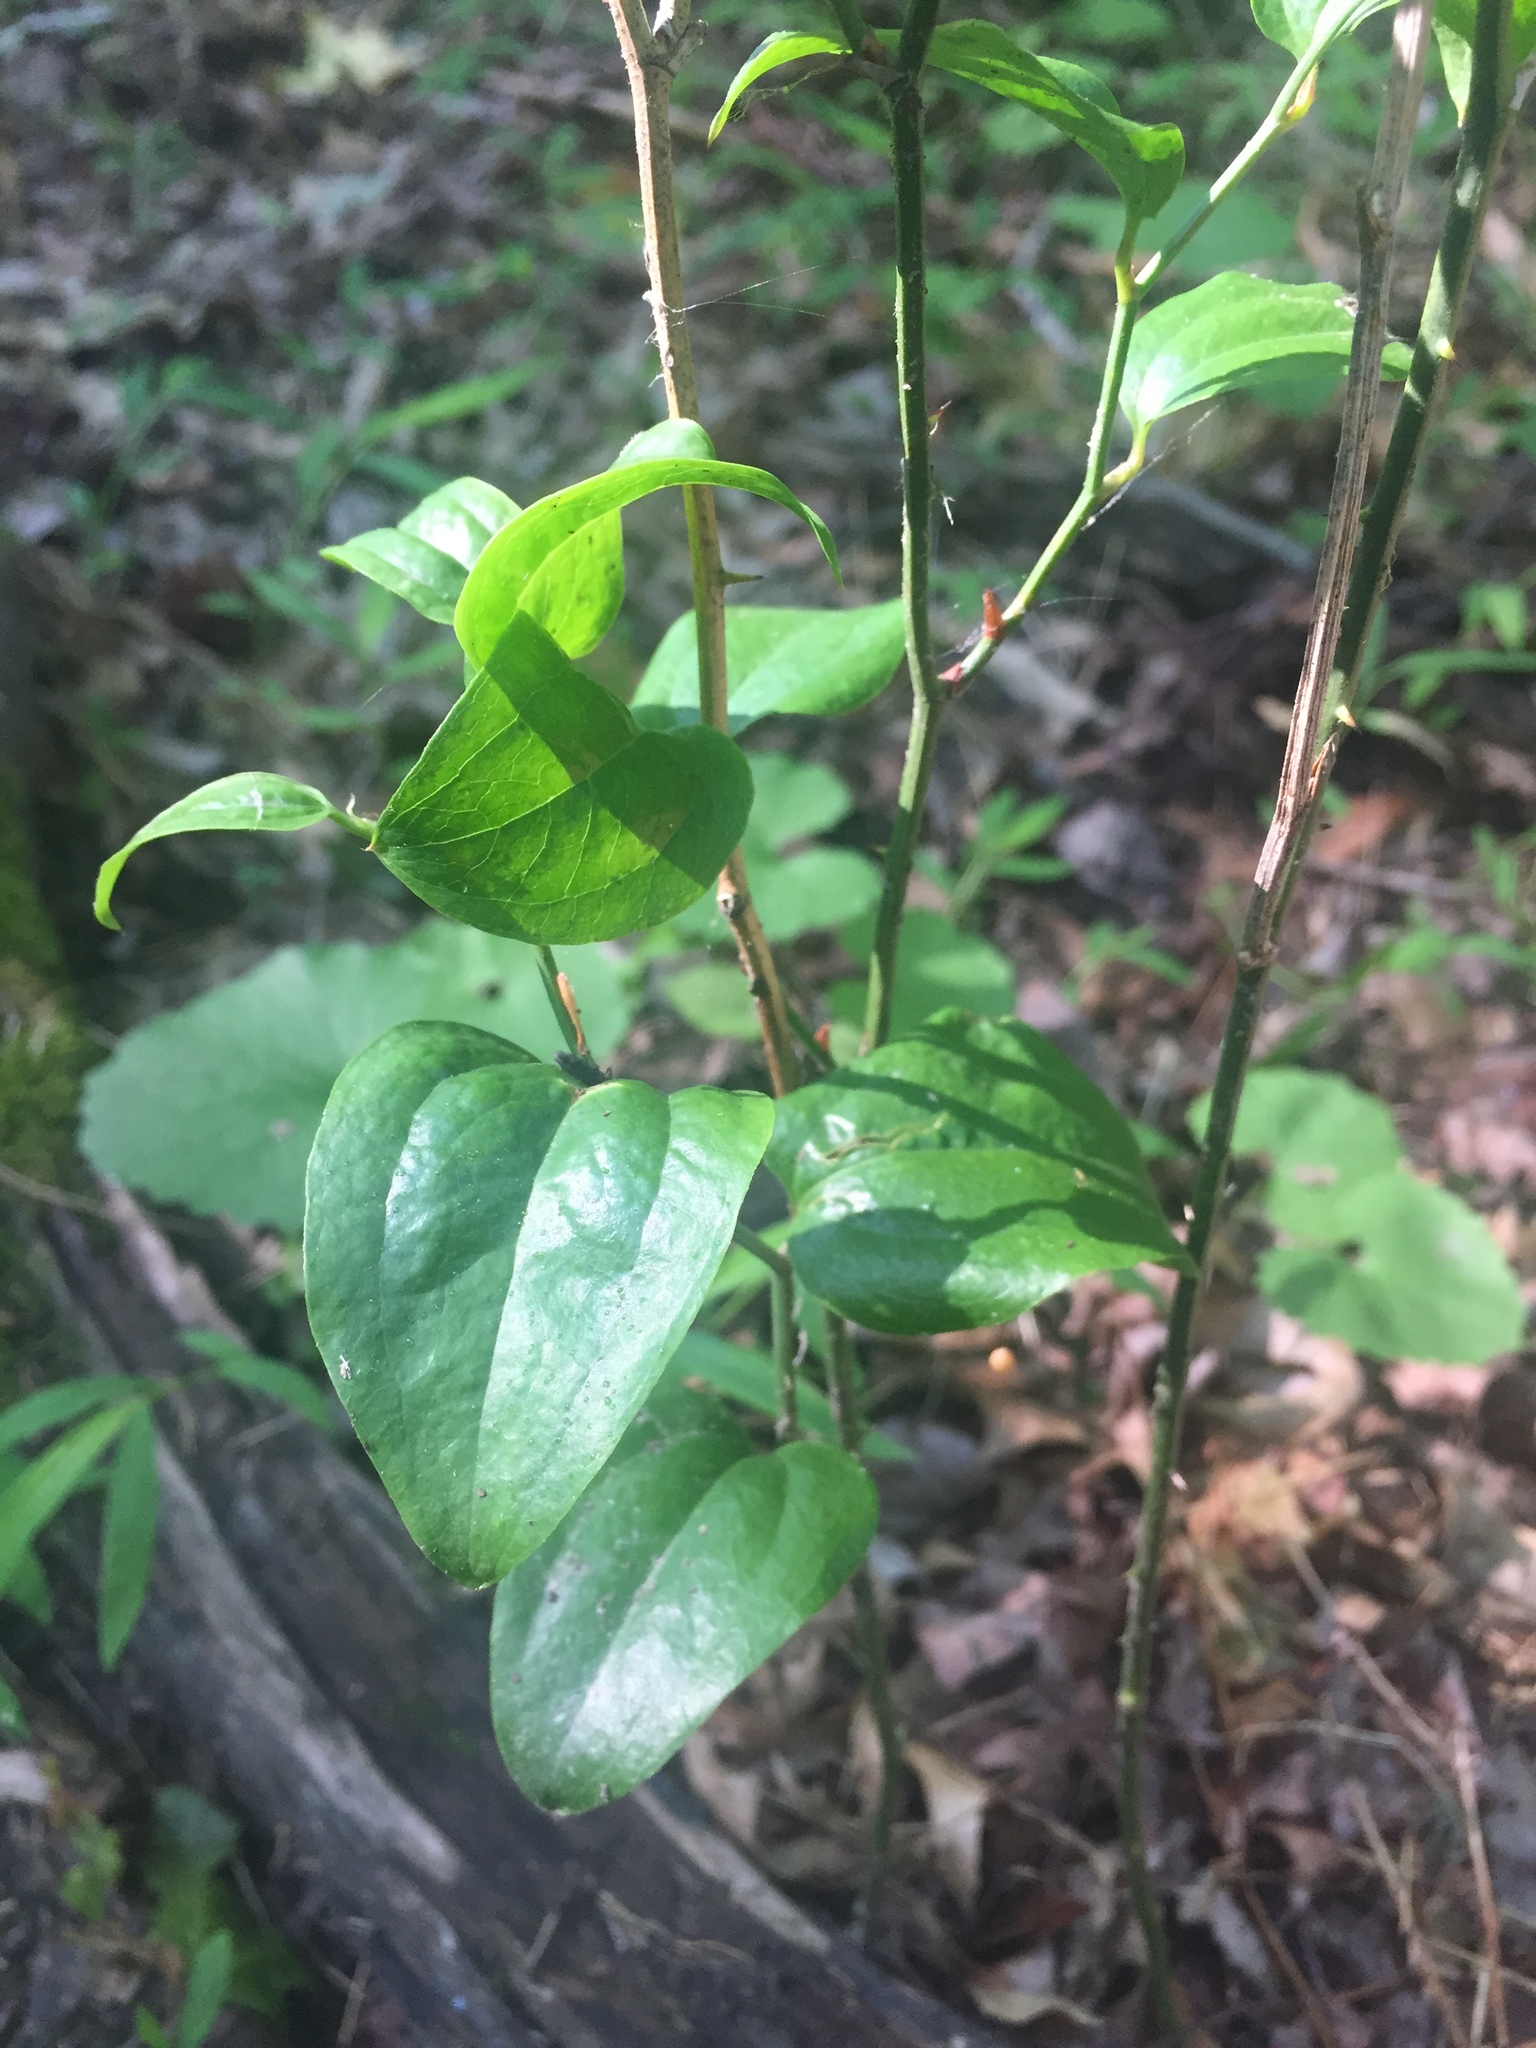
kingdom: Plantae
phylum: Tracheophyta
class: Liliopsida
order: Liliales
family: Smilacaceae
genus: Smilax
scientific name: Smilax rotundifolia
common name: Bullbriar
